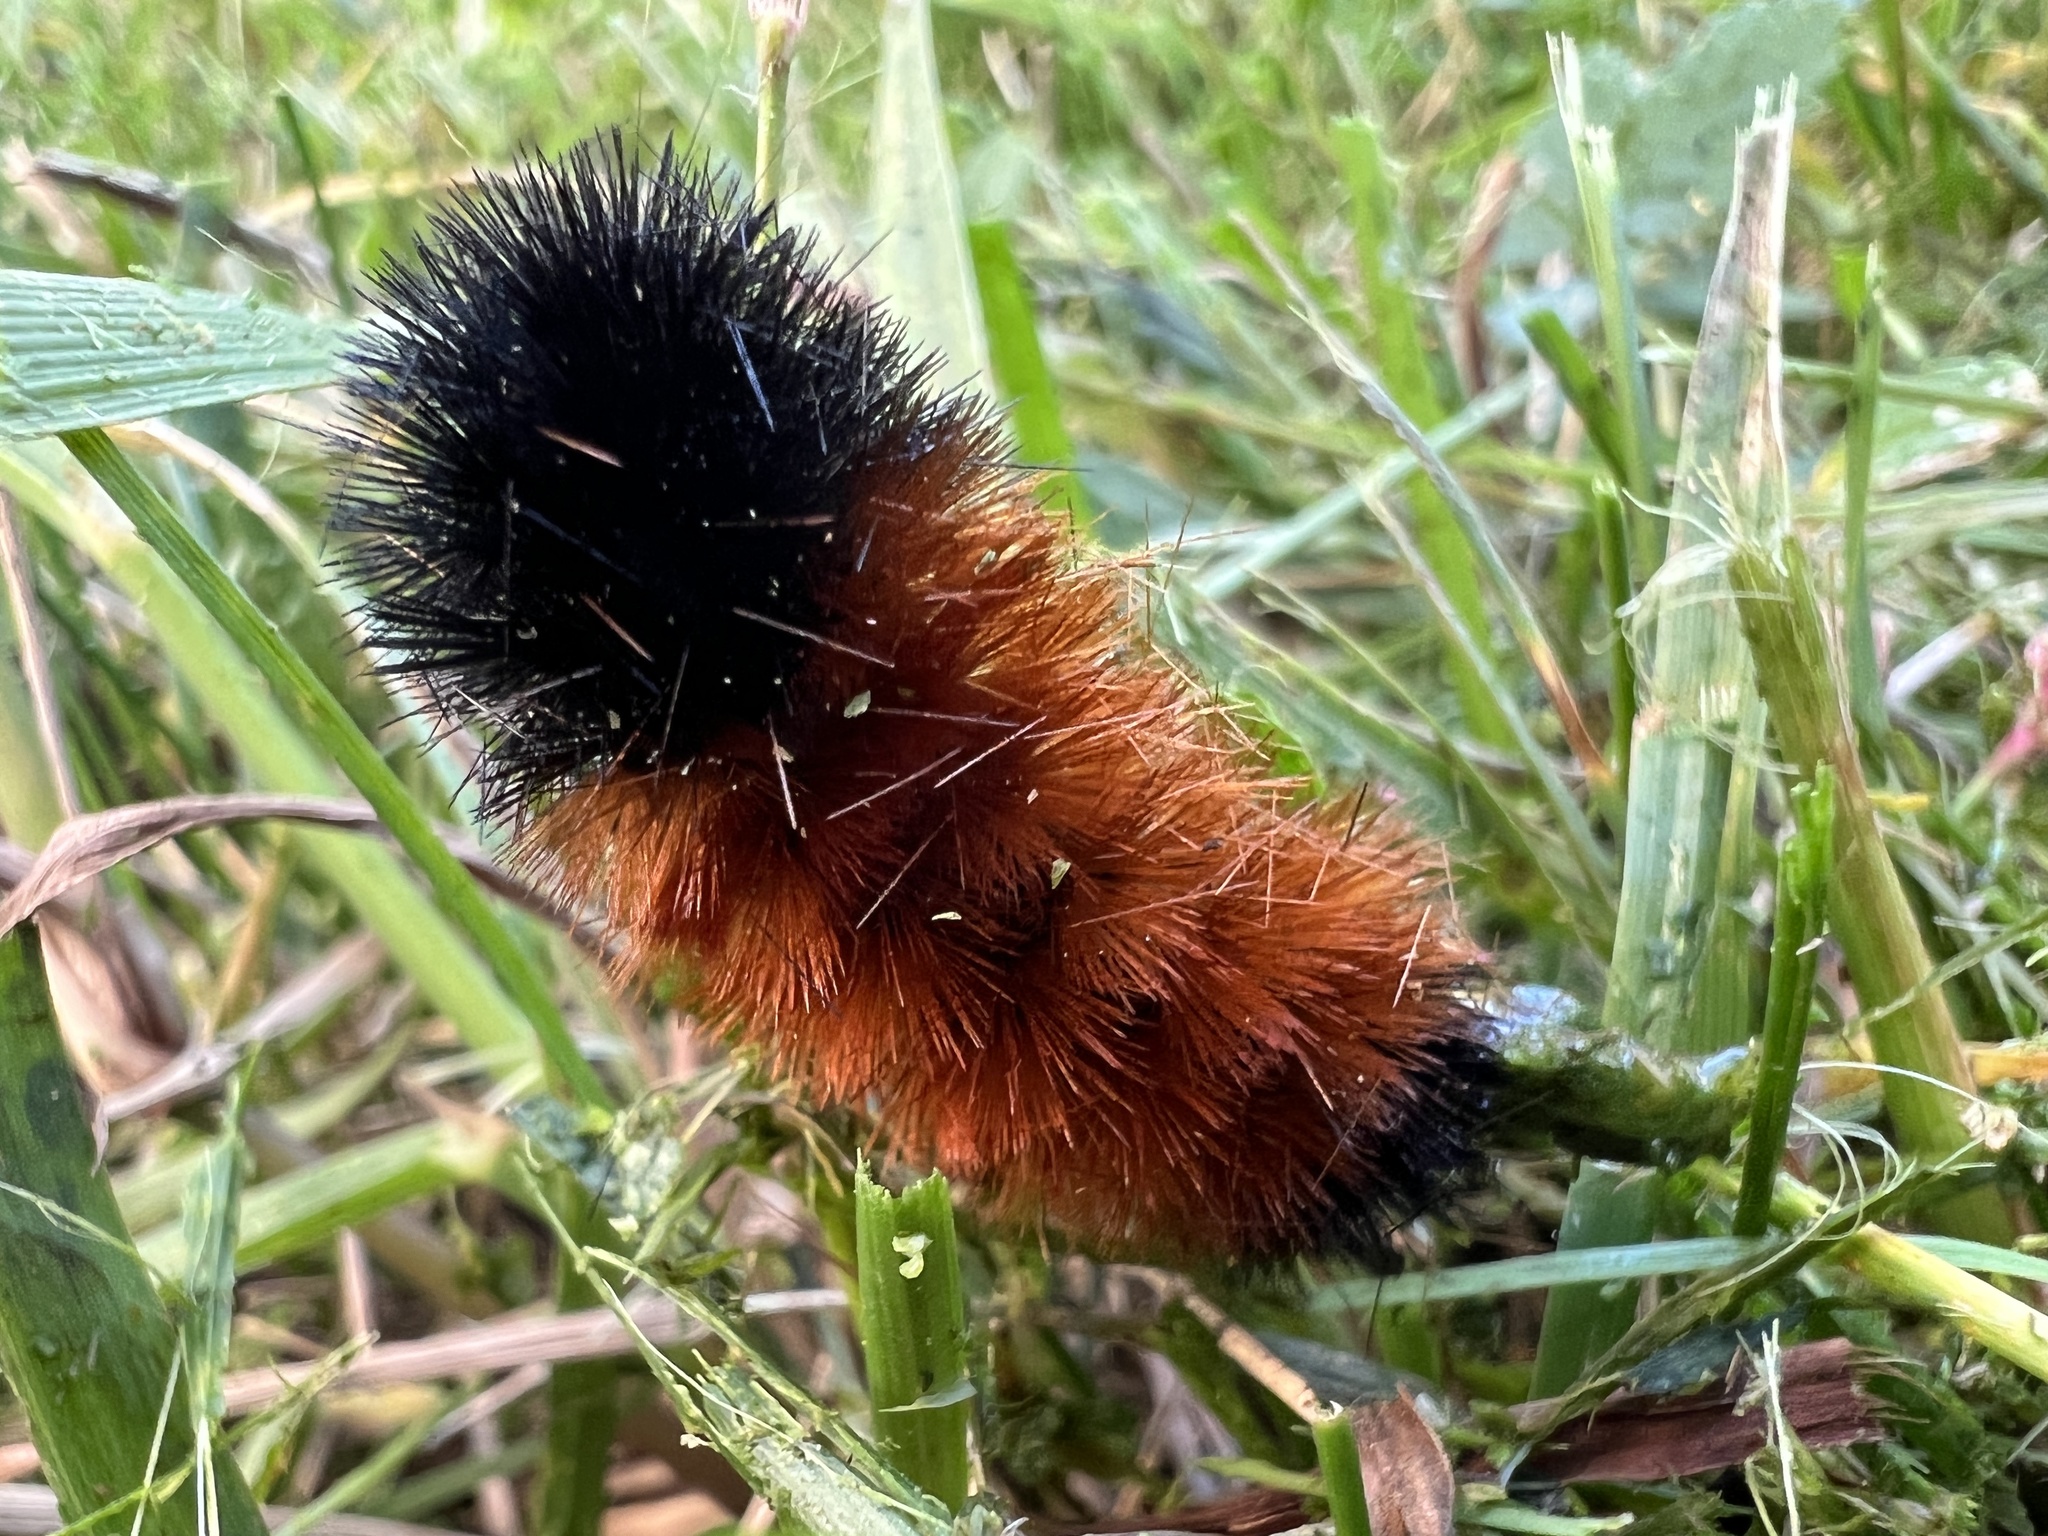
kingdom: Animalia
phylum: Arthropoda
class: Insecta
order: Lepidoptera
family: Erebidae
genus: Pyrrharctia
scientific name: Pyrrharctia isabella
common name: Isabella tiger moth
